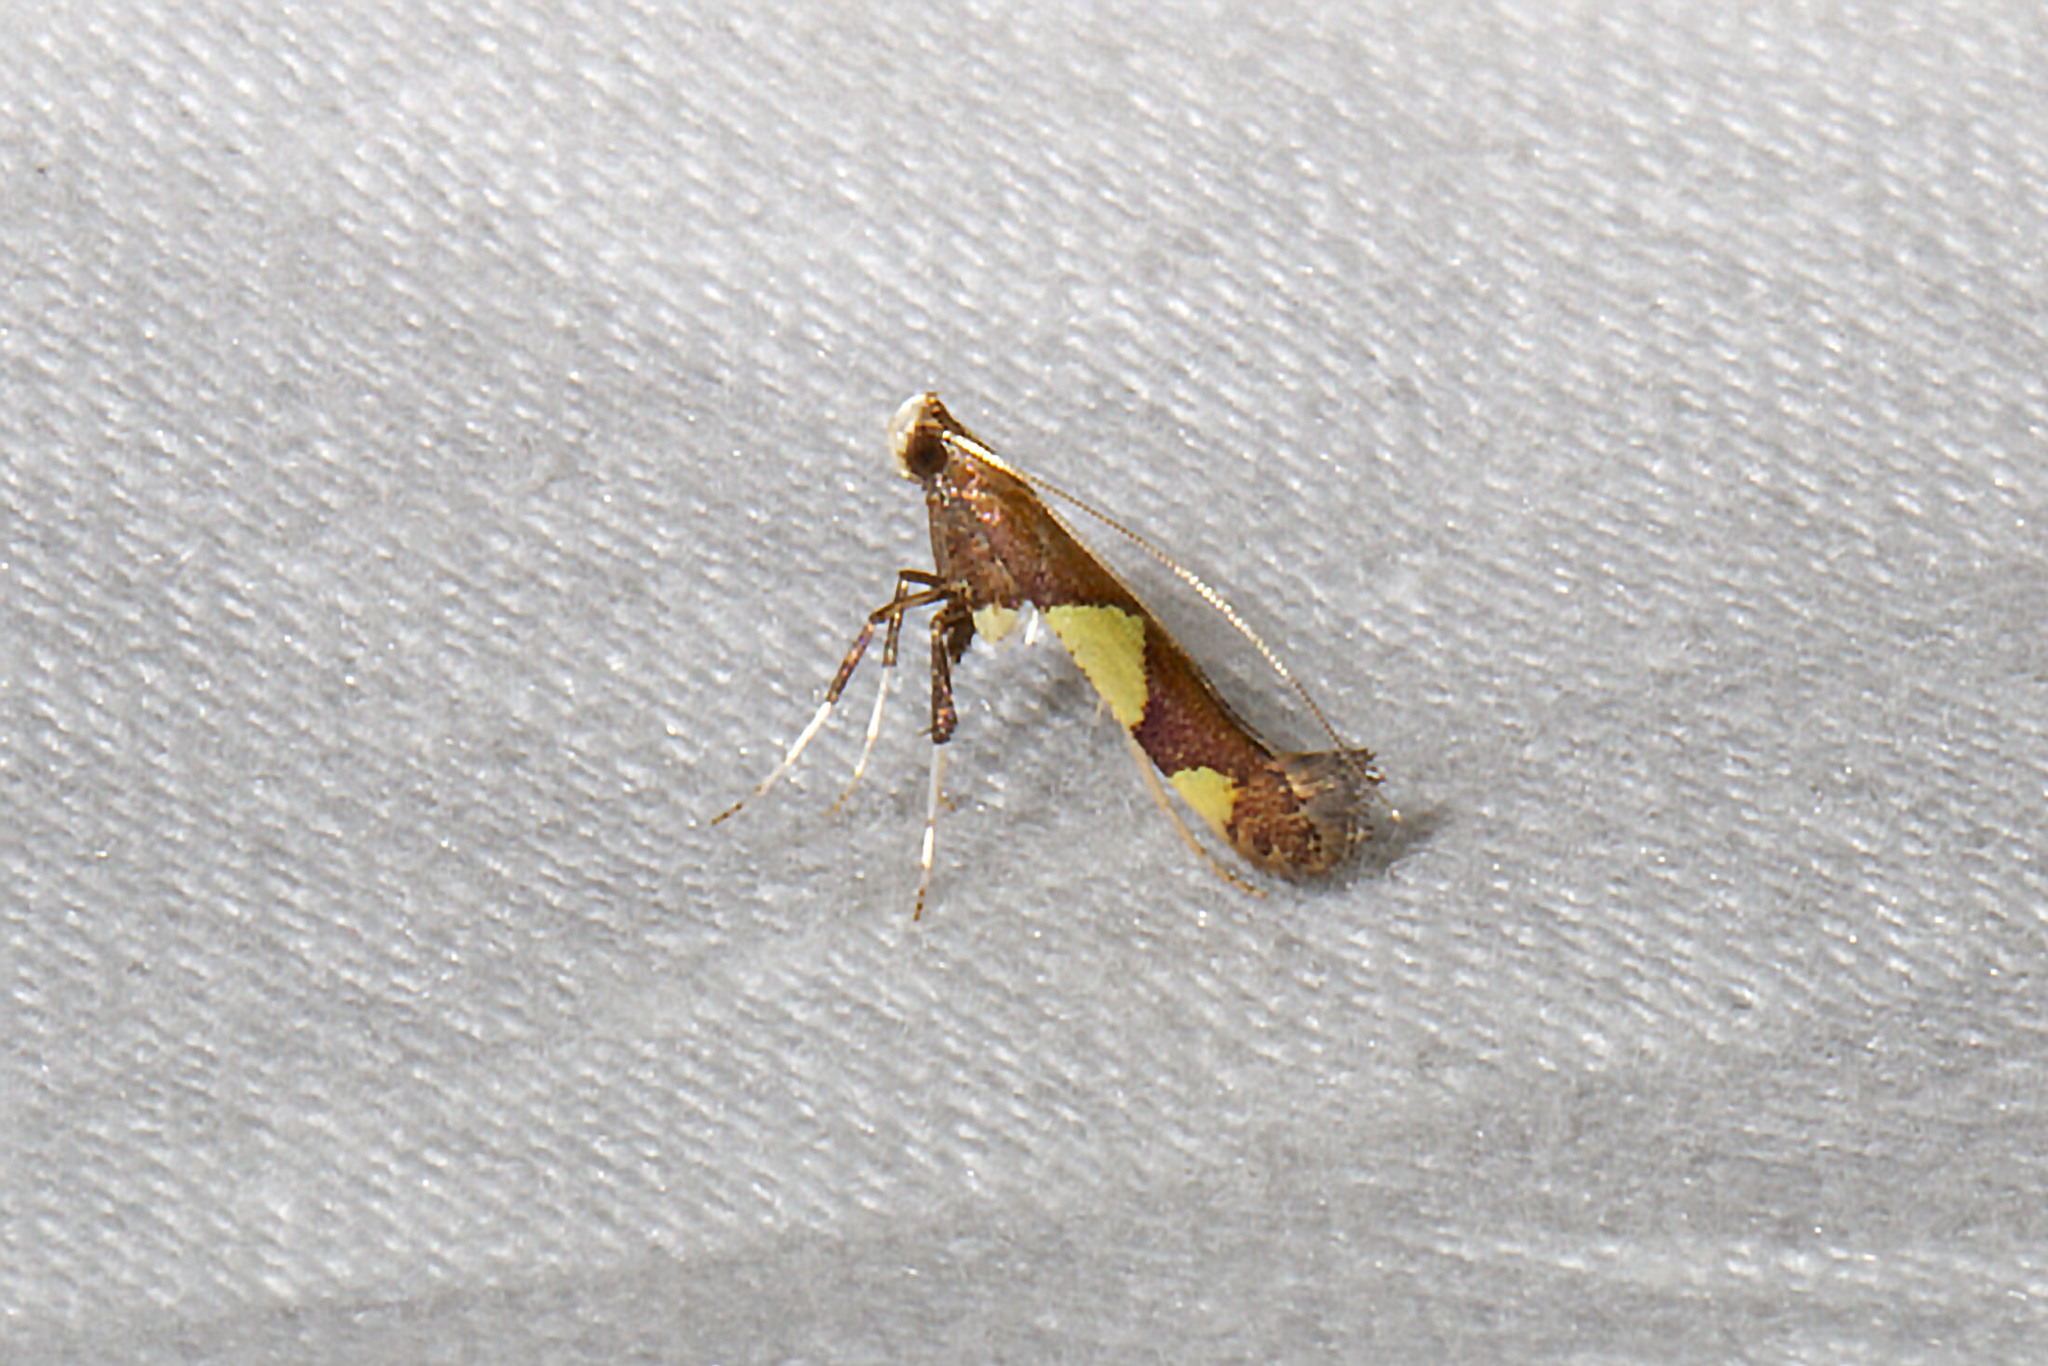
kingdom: Animalia
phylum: Arthropoda
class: Insecta
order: Lepidoptera
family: Gracillariidae
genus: Caloptilia
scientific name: Caloptilia bimaculatella
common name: Maple caloptilia moth
